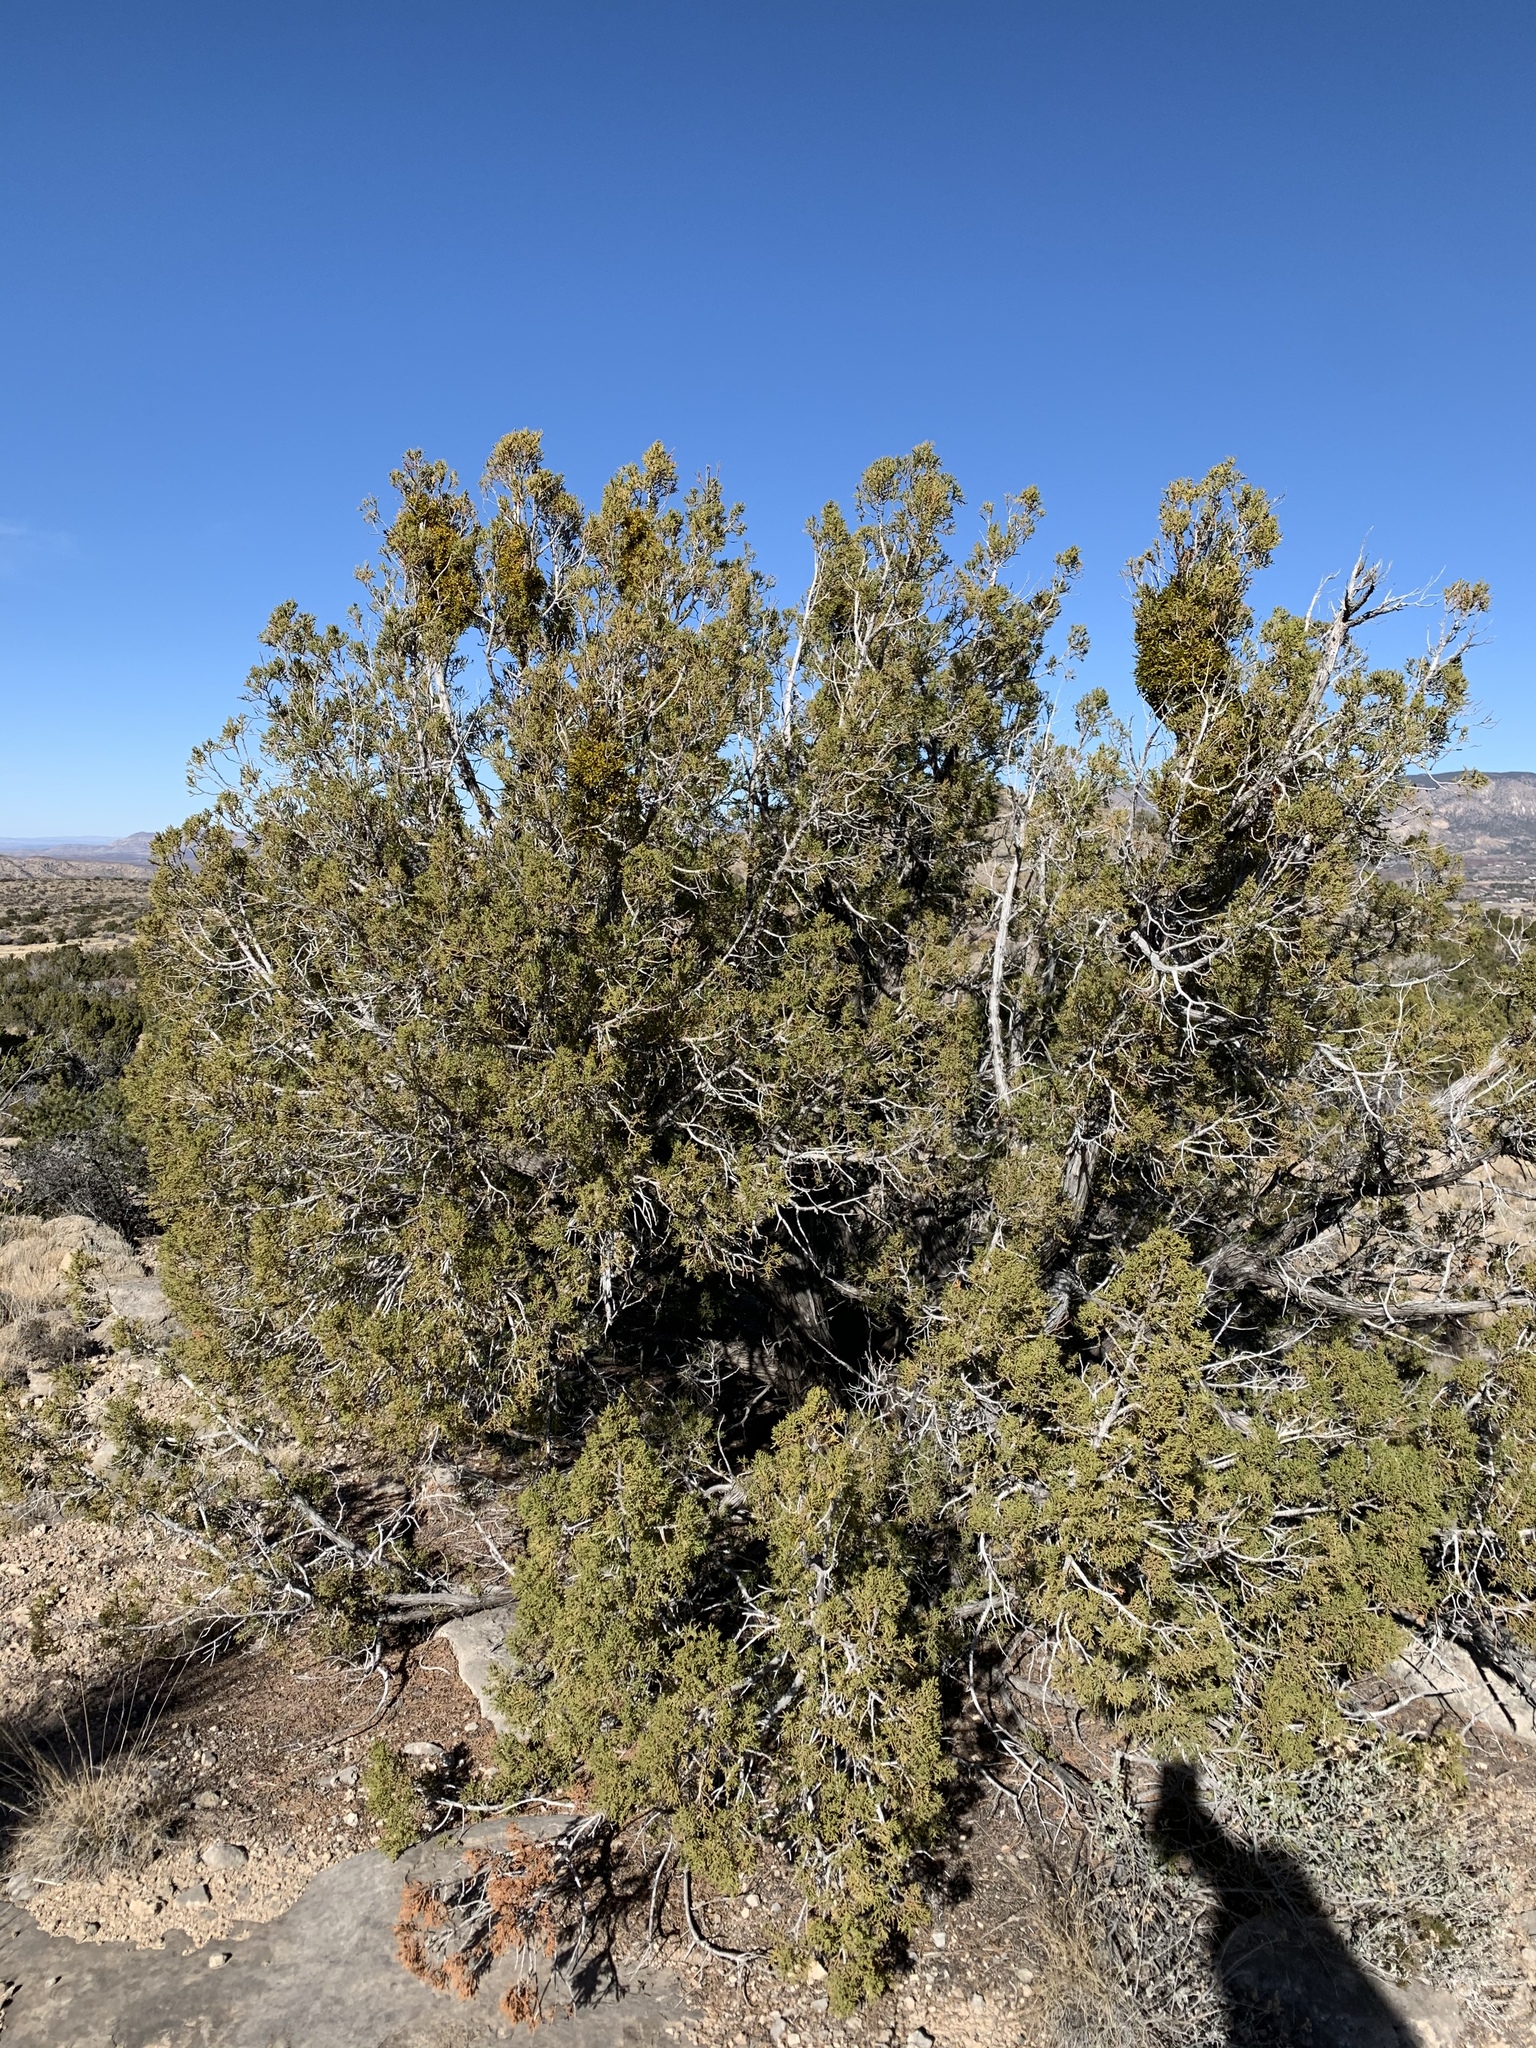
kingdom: Plantae
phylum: Tracheophyta
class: Pinopsida
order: Pinales
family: Cupressaceae
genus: Juniperus
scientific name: Juniperus monosperma
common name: One-seed juniper
